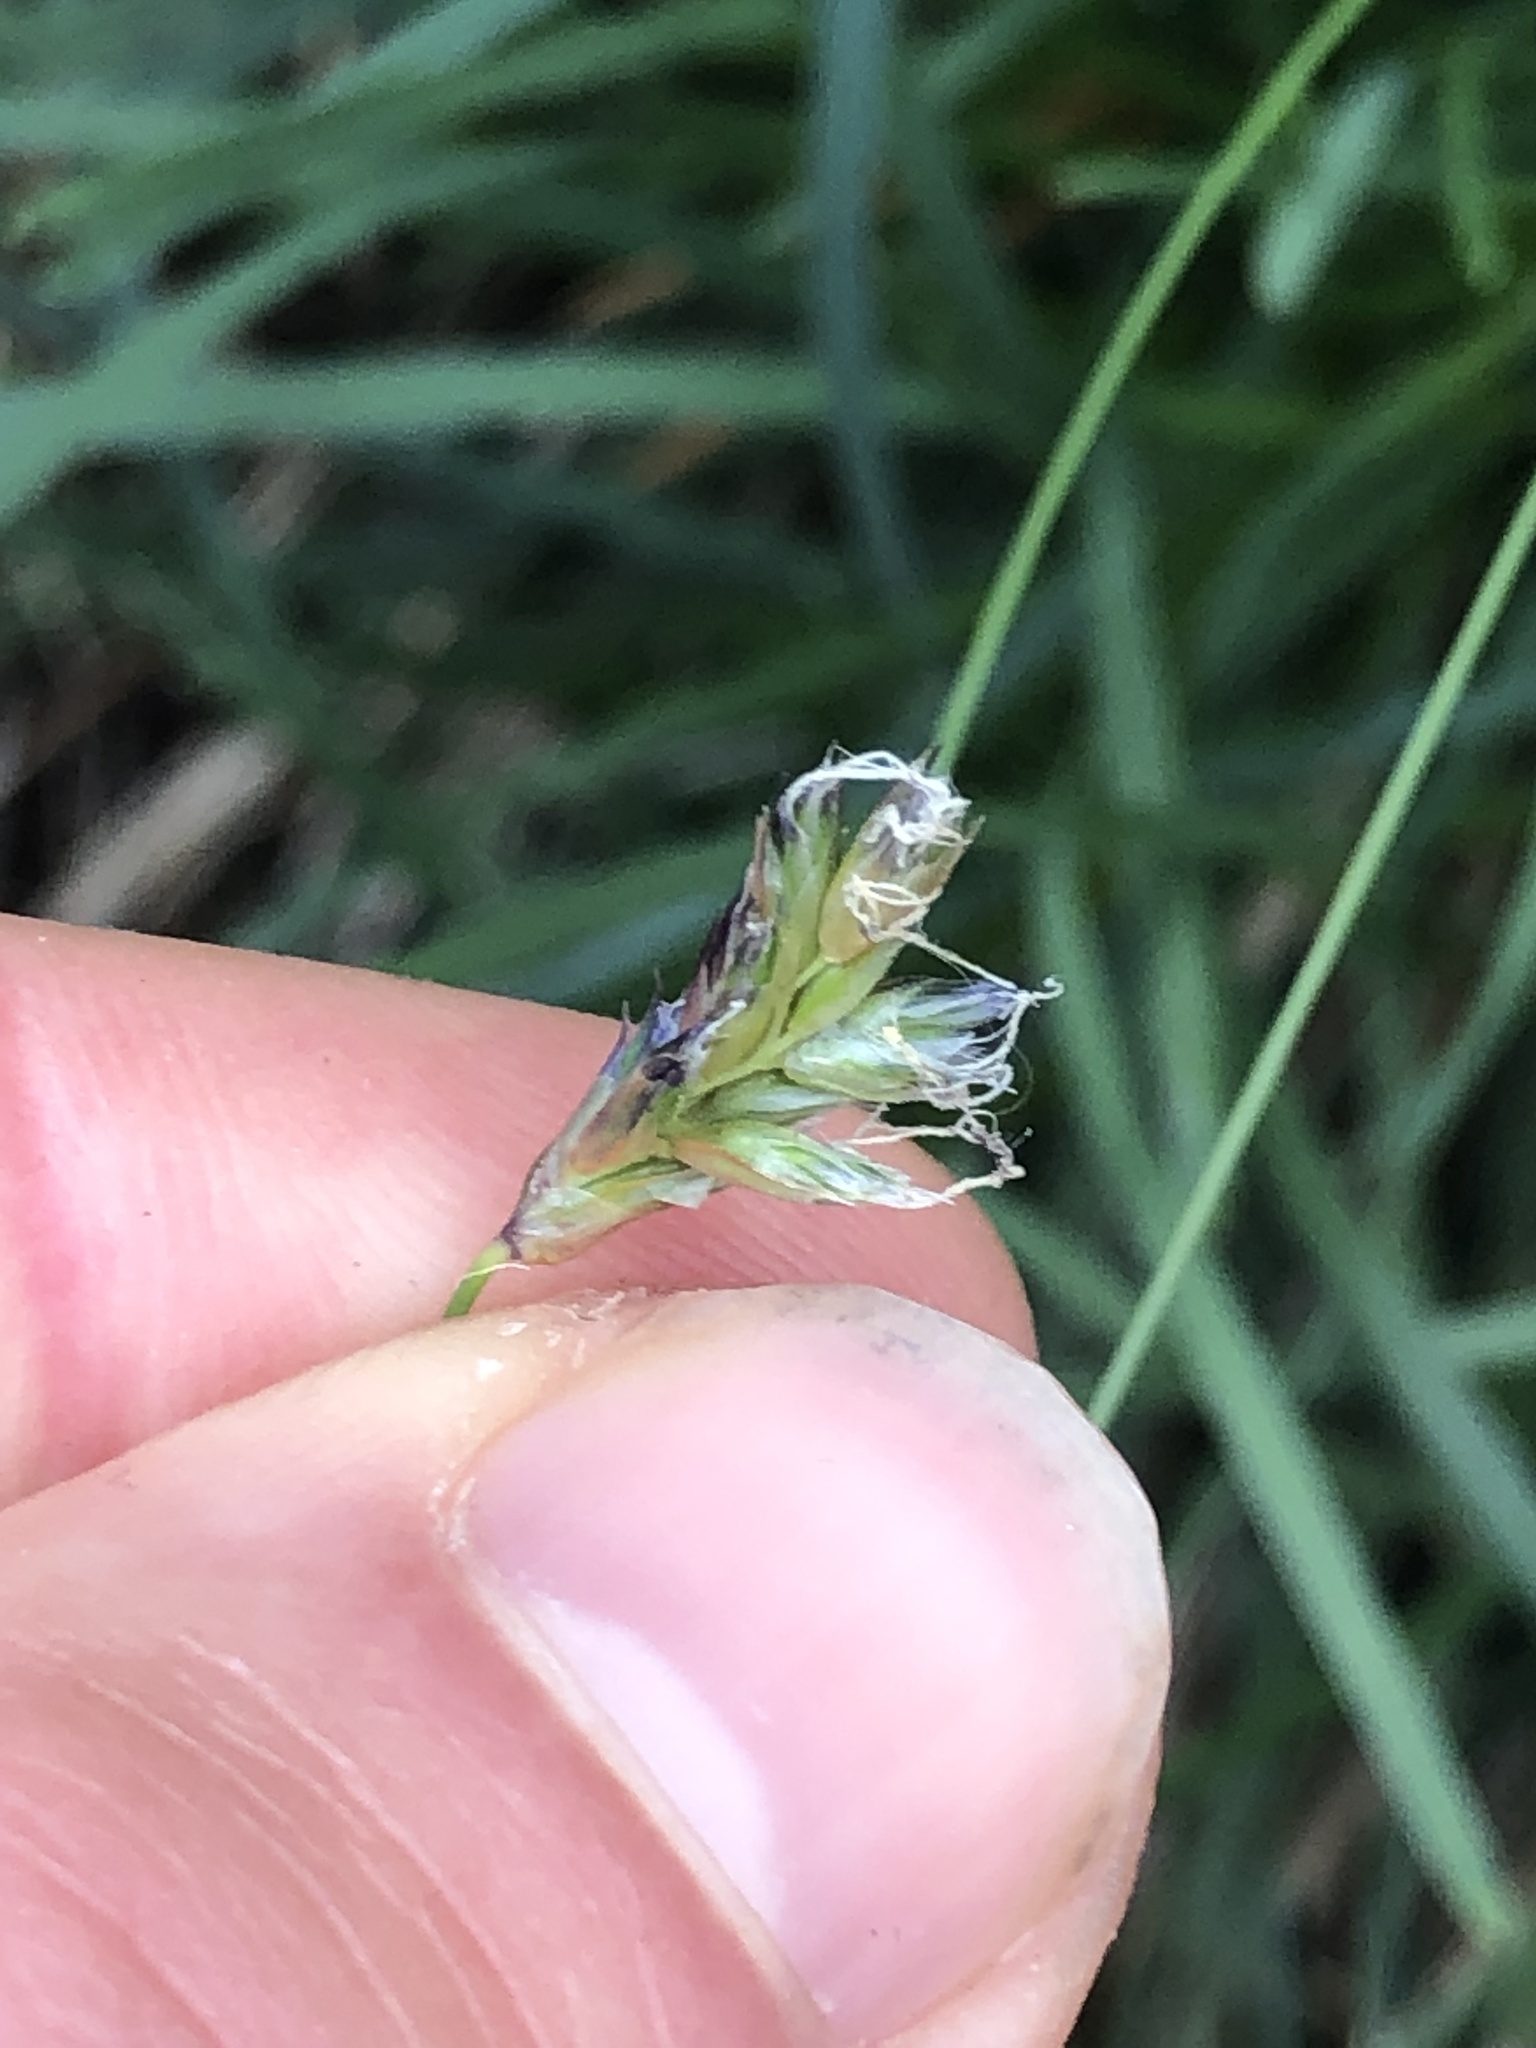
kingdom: Plantae
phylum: Tracheophyta
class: Liliopsida
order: Poales
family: Poaceae
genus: Sesleria
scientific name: Sesleria caerulea
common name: Blue moor-grass
